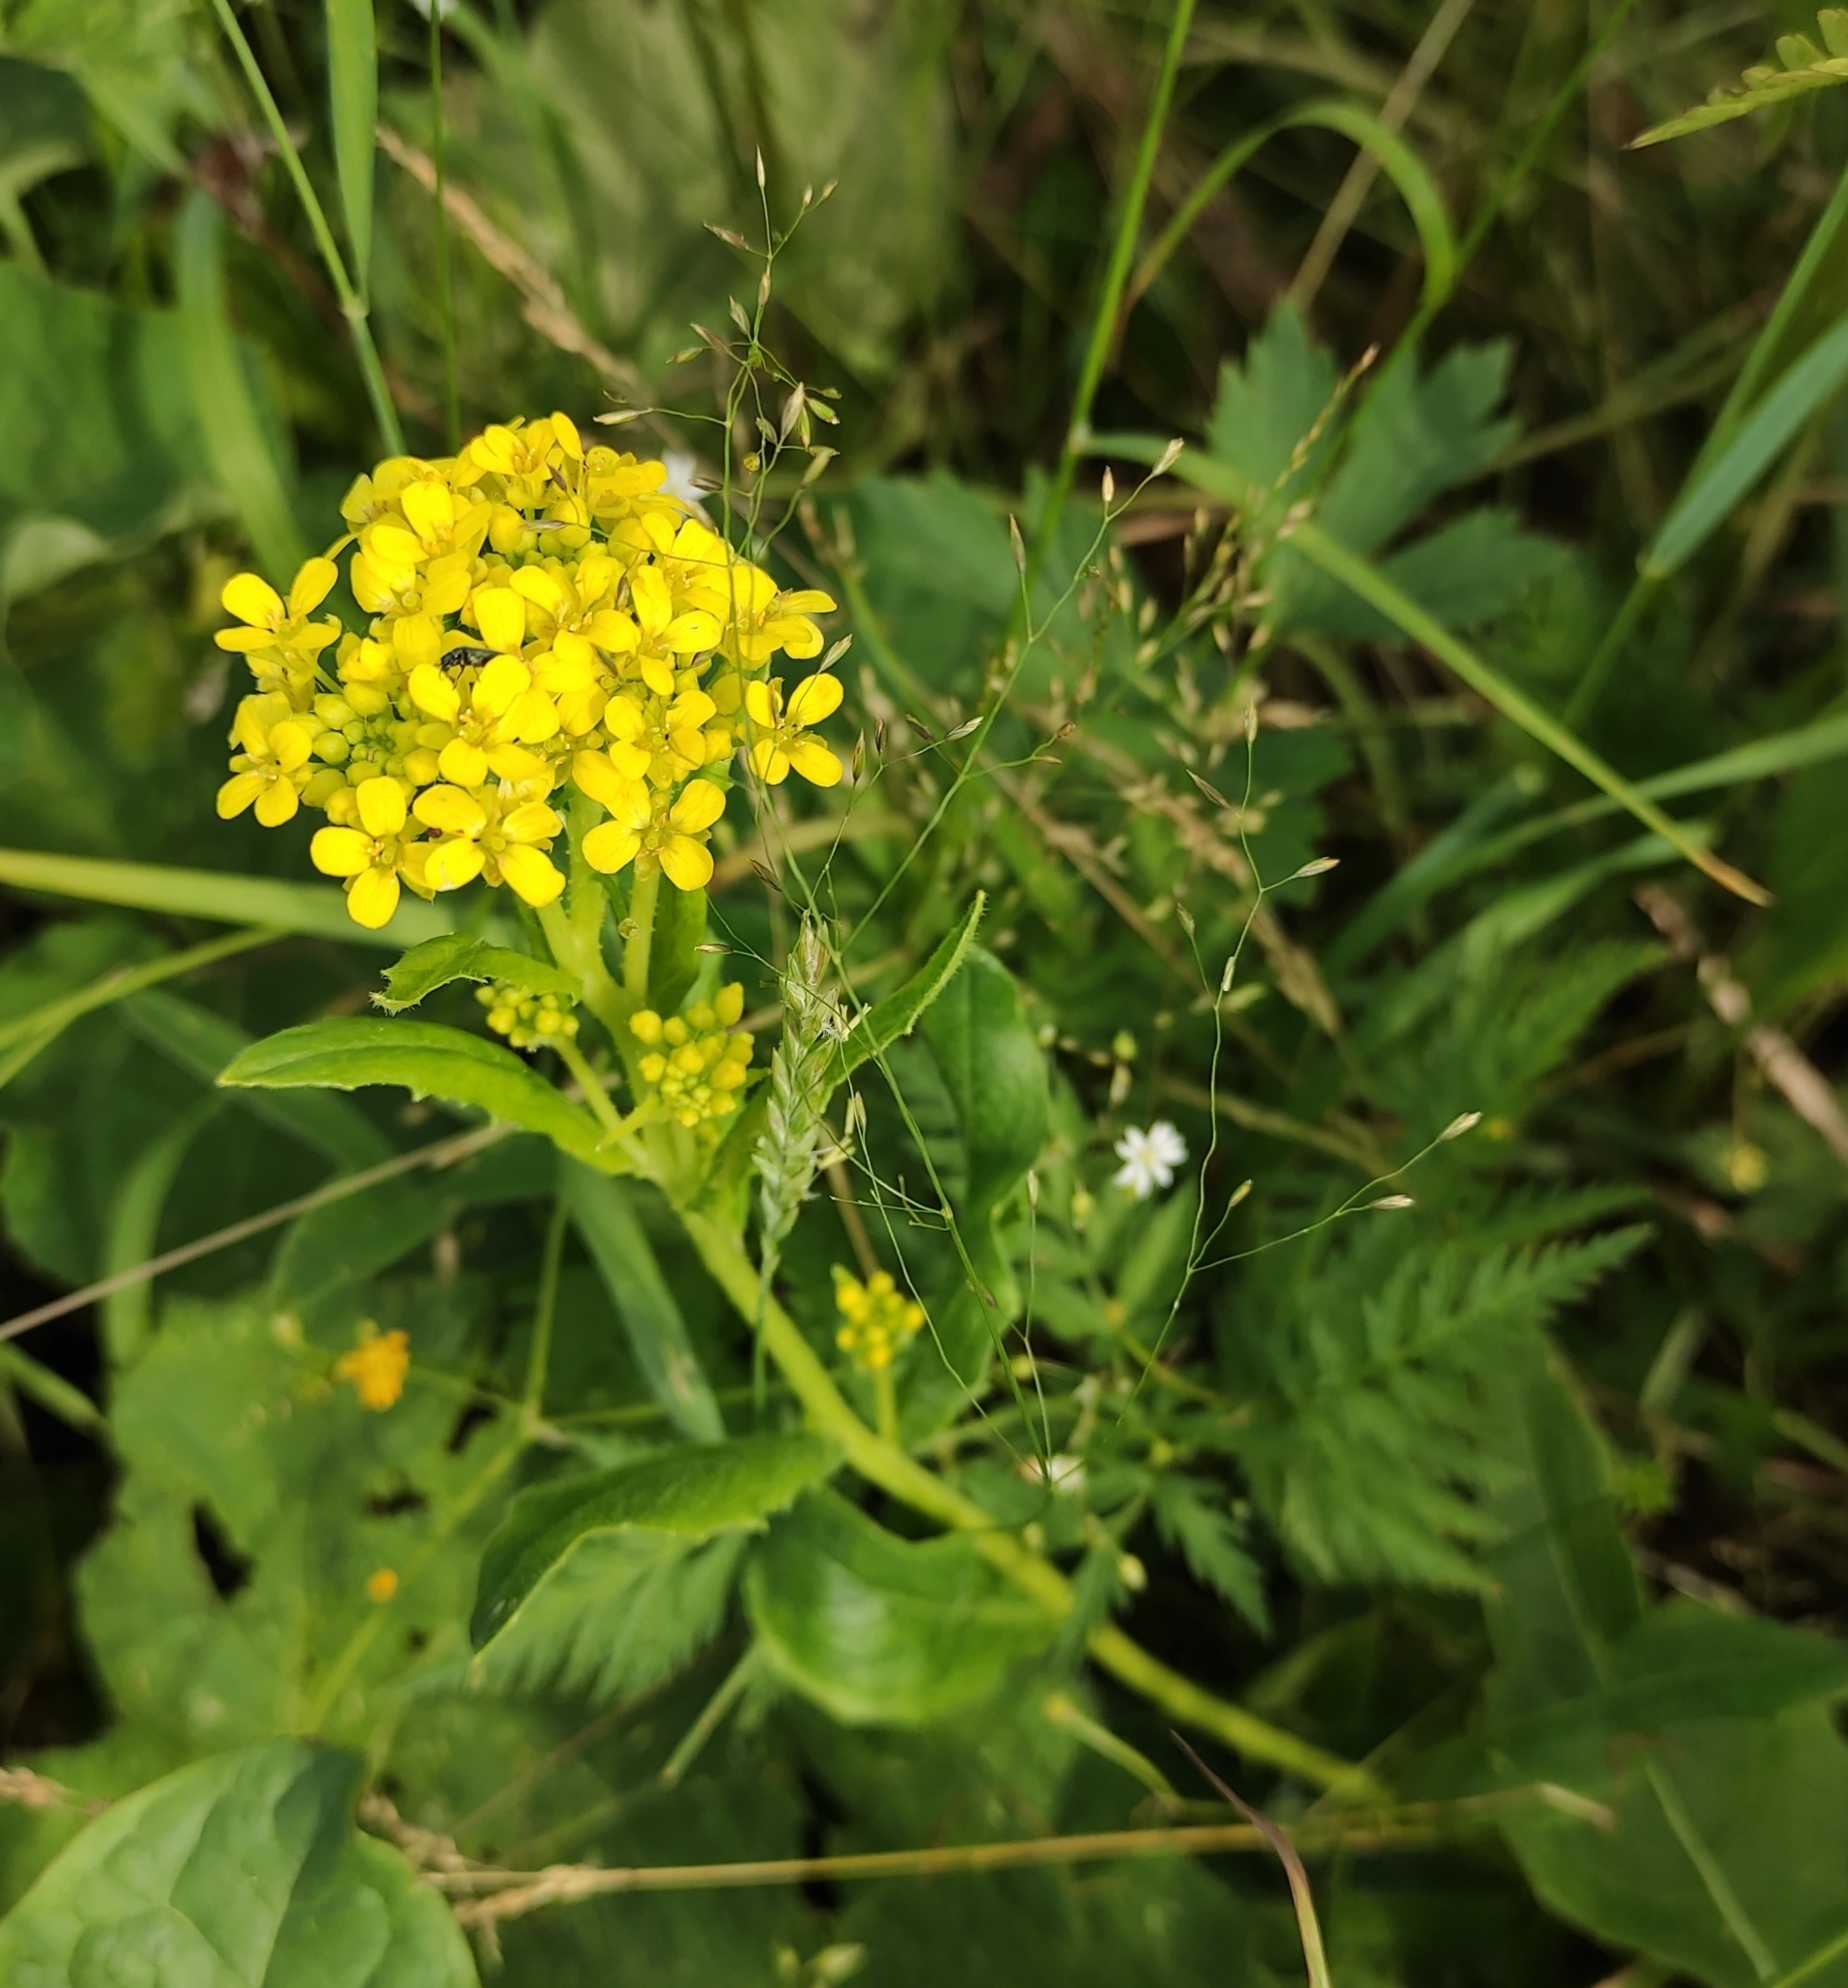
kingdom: Plantae
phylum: Tracheophyta
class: Magnoliopsida
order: Brassicales
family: Brassicaceae
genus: Bunias
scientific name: Bunias orientalis
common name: Warty-cabbage
